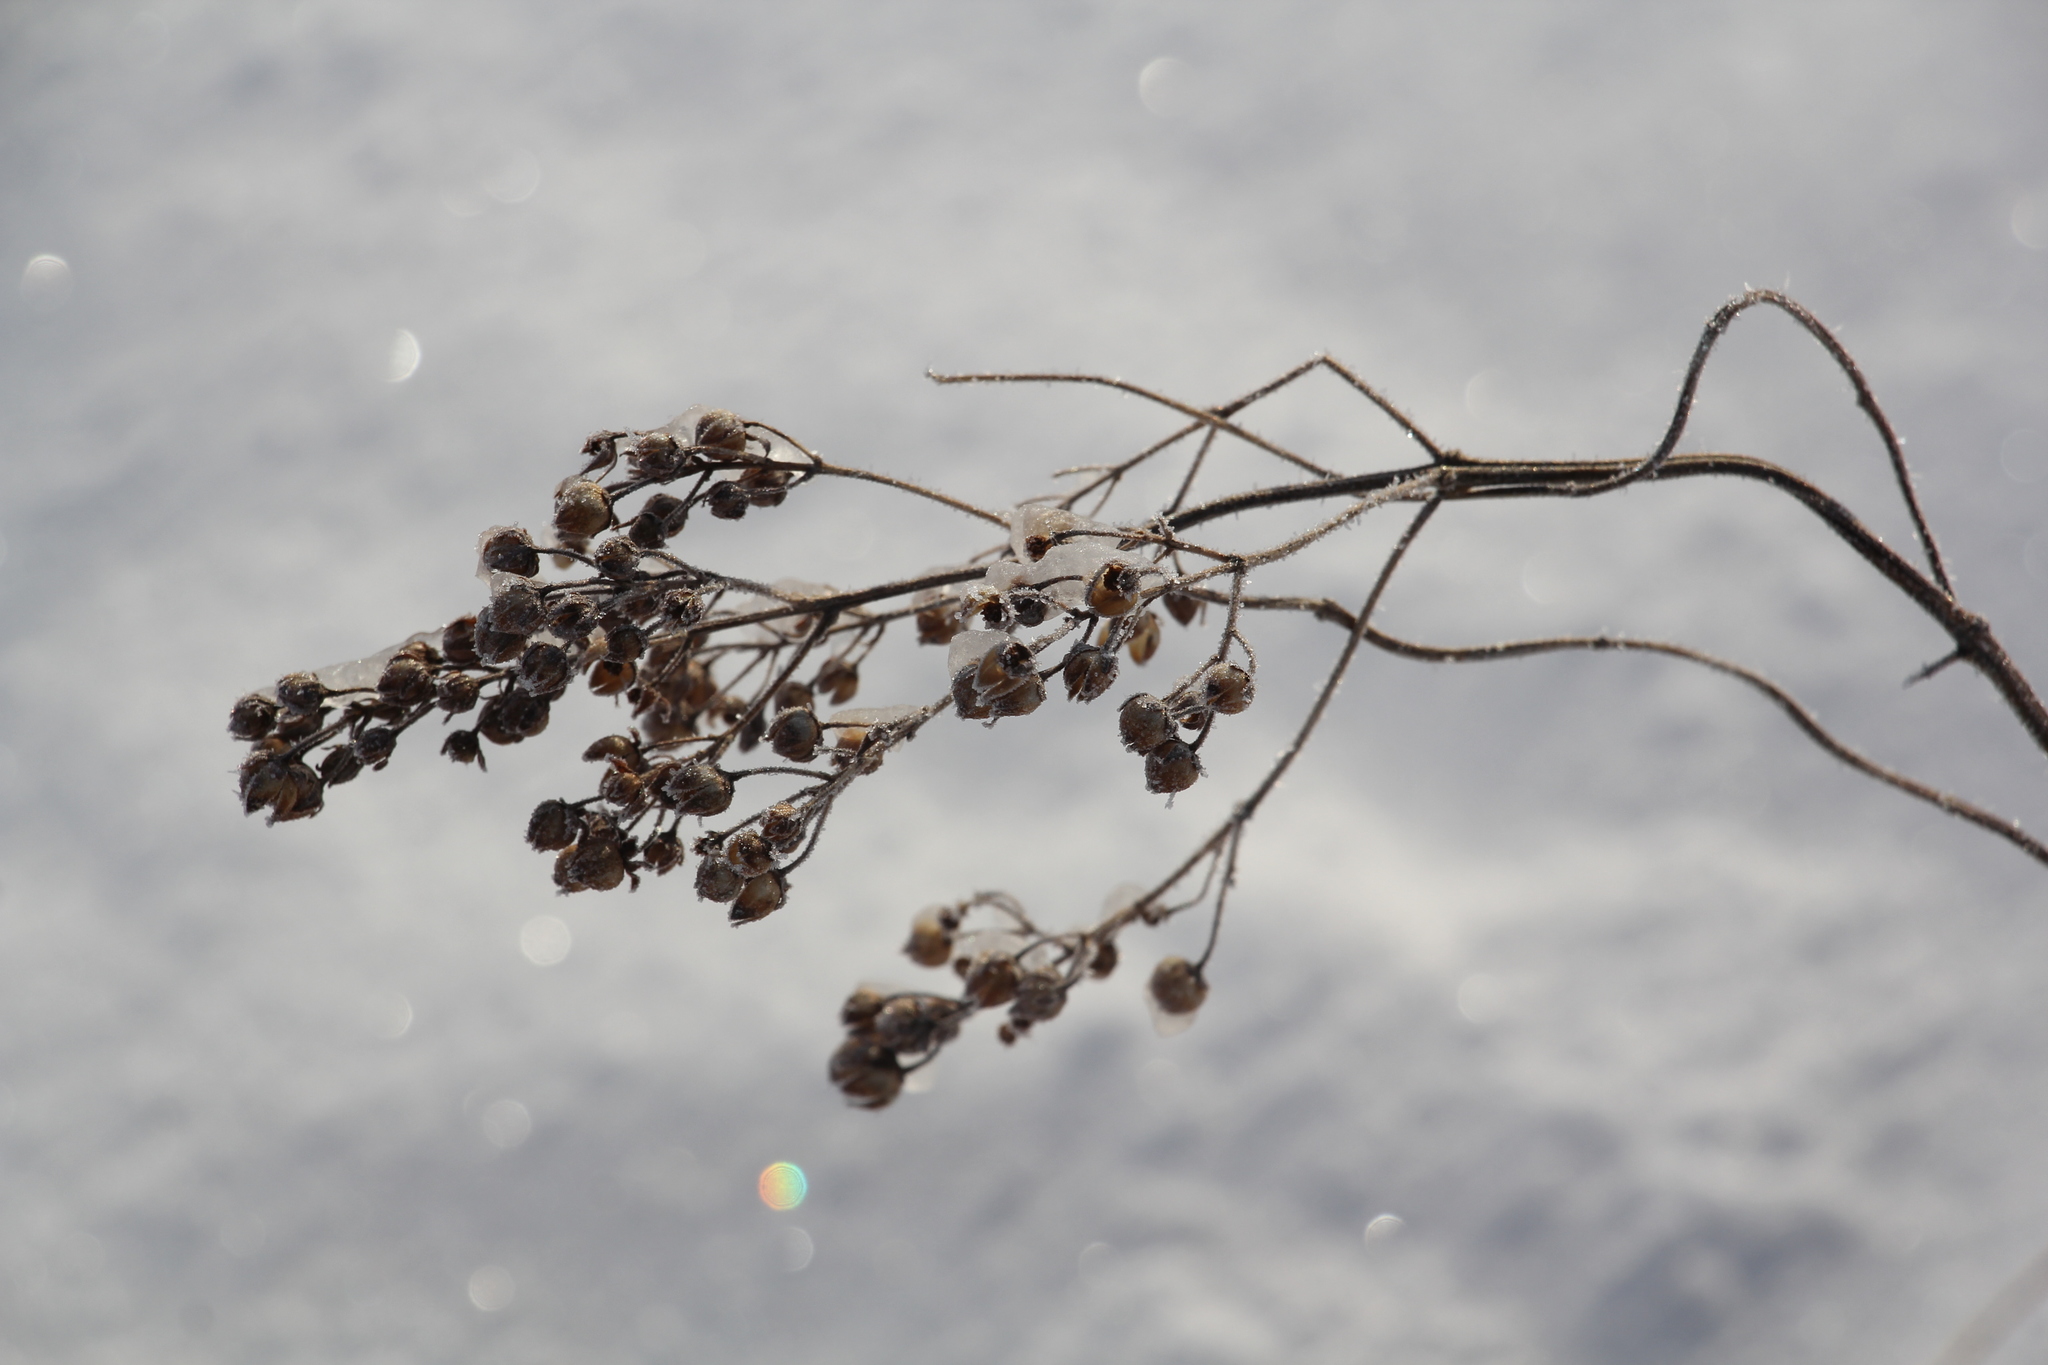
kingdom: Plantae
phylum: Tracheophyta
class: Magnoliopsida
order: Ericales
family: Primulaceae
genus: Lysimachia
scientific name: Lysimachia vulgaris
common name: Yellow loosestrife
